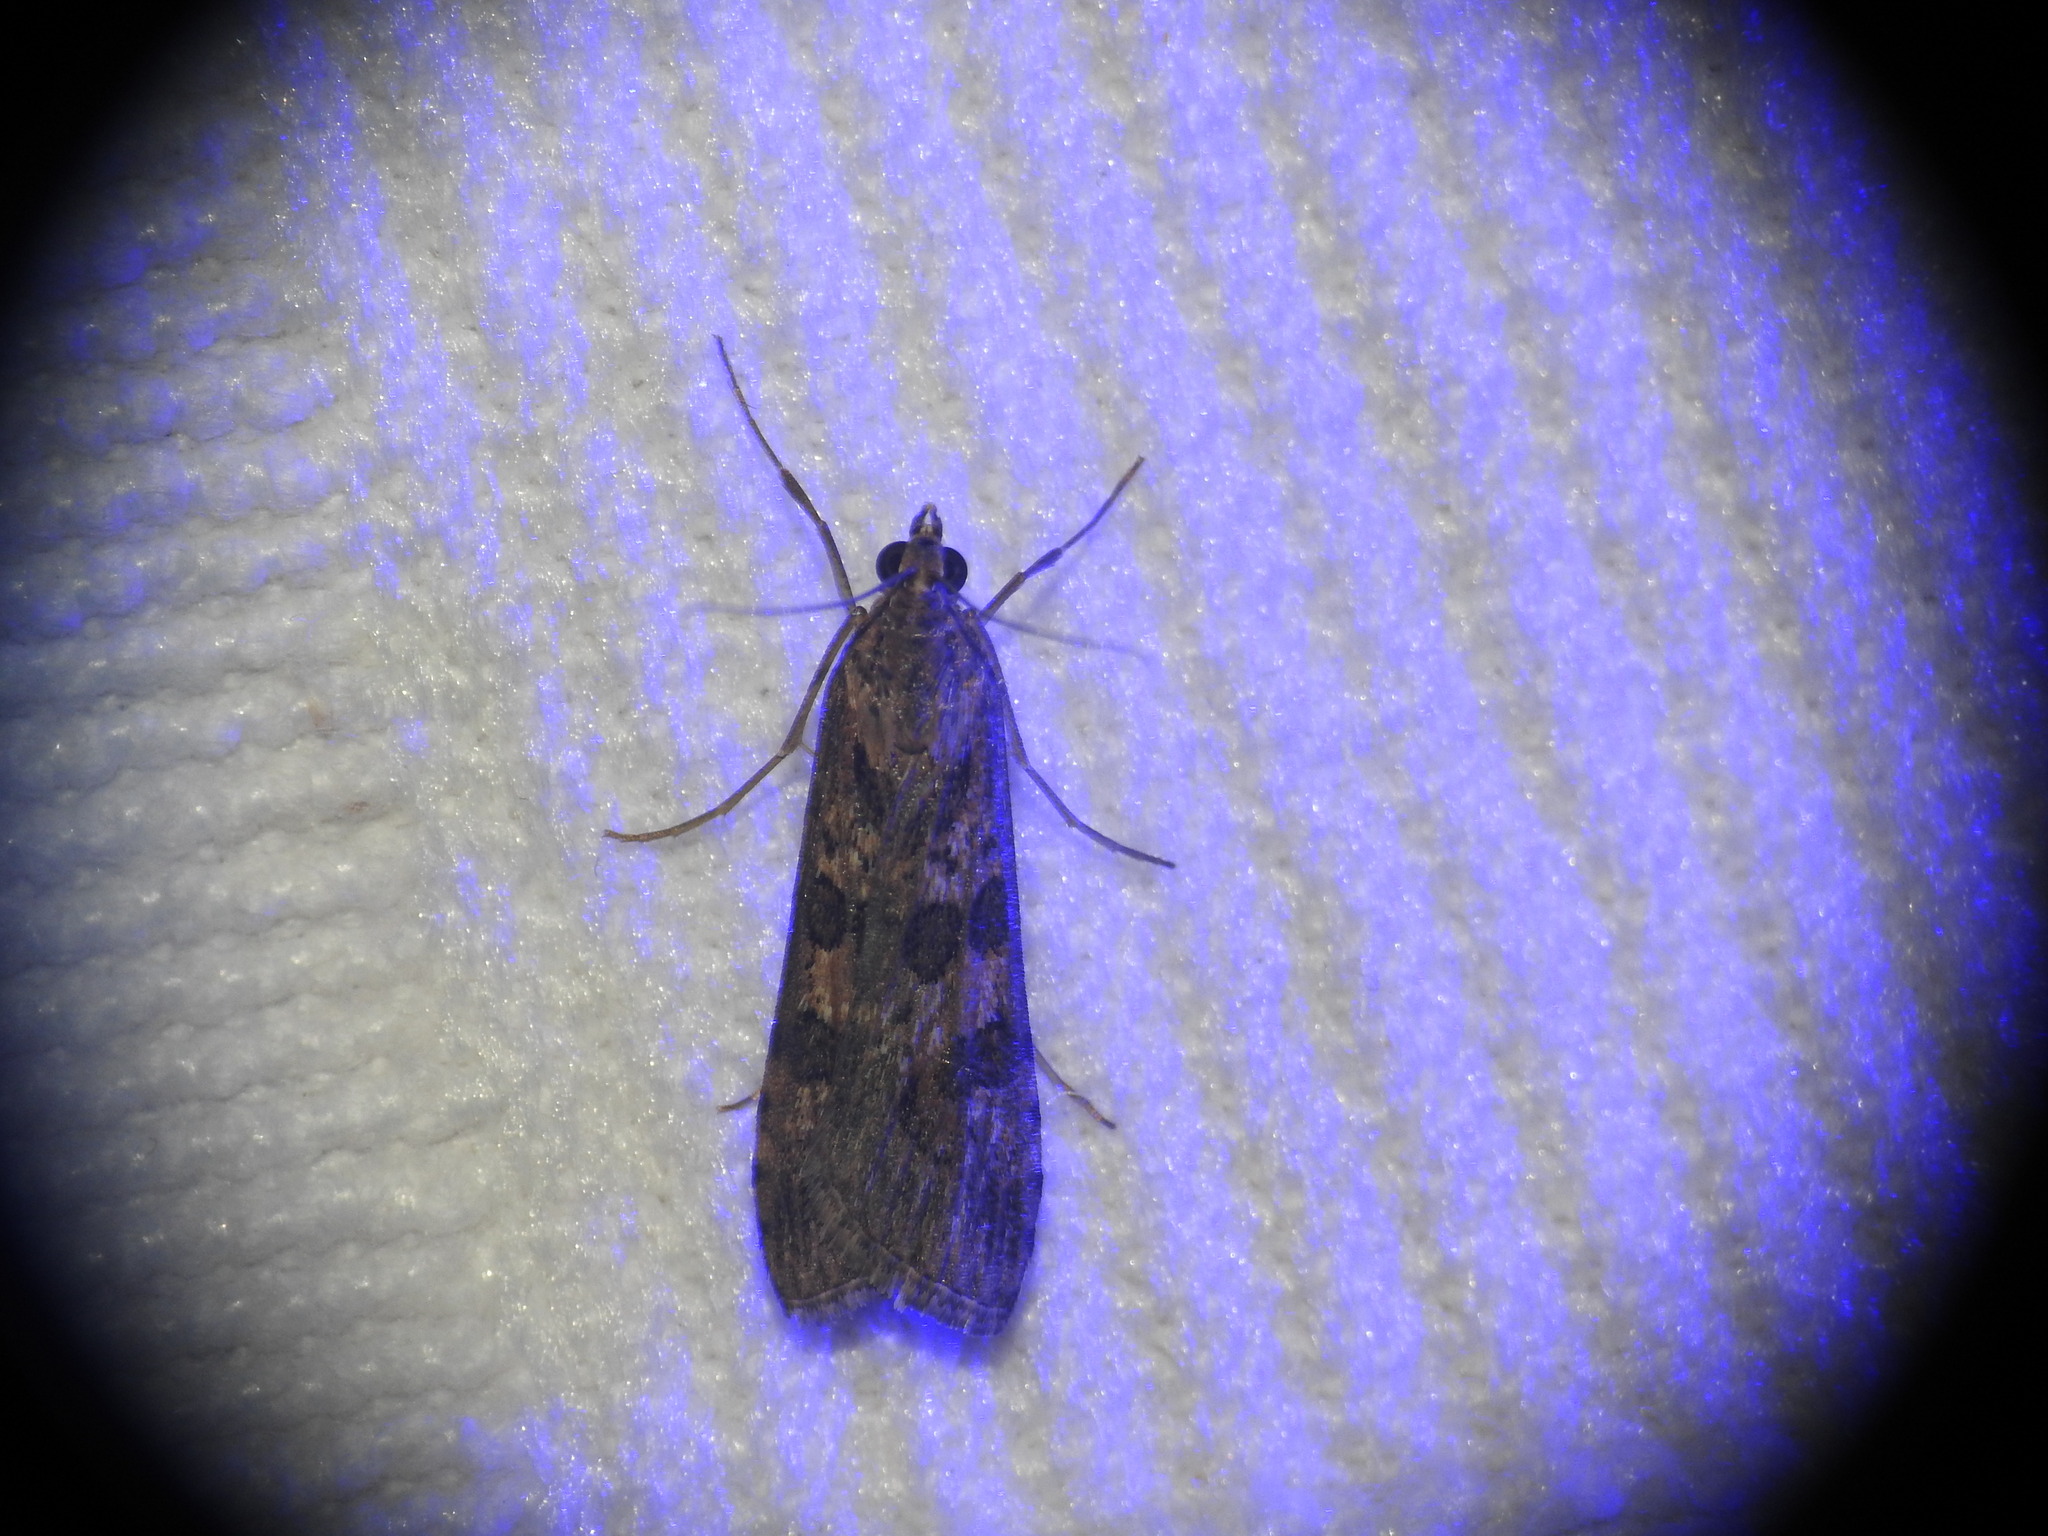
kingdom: Animalia
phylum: Arthropoda
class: Insecta
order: Lepidoptera
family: Crambidae
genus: Nomophila
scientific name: Nomophila noctuella
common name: Rush veneer
